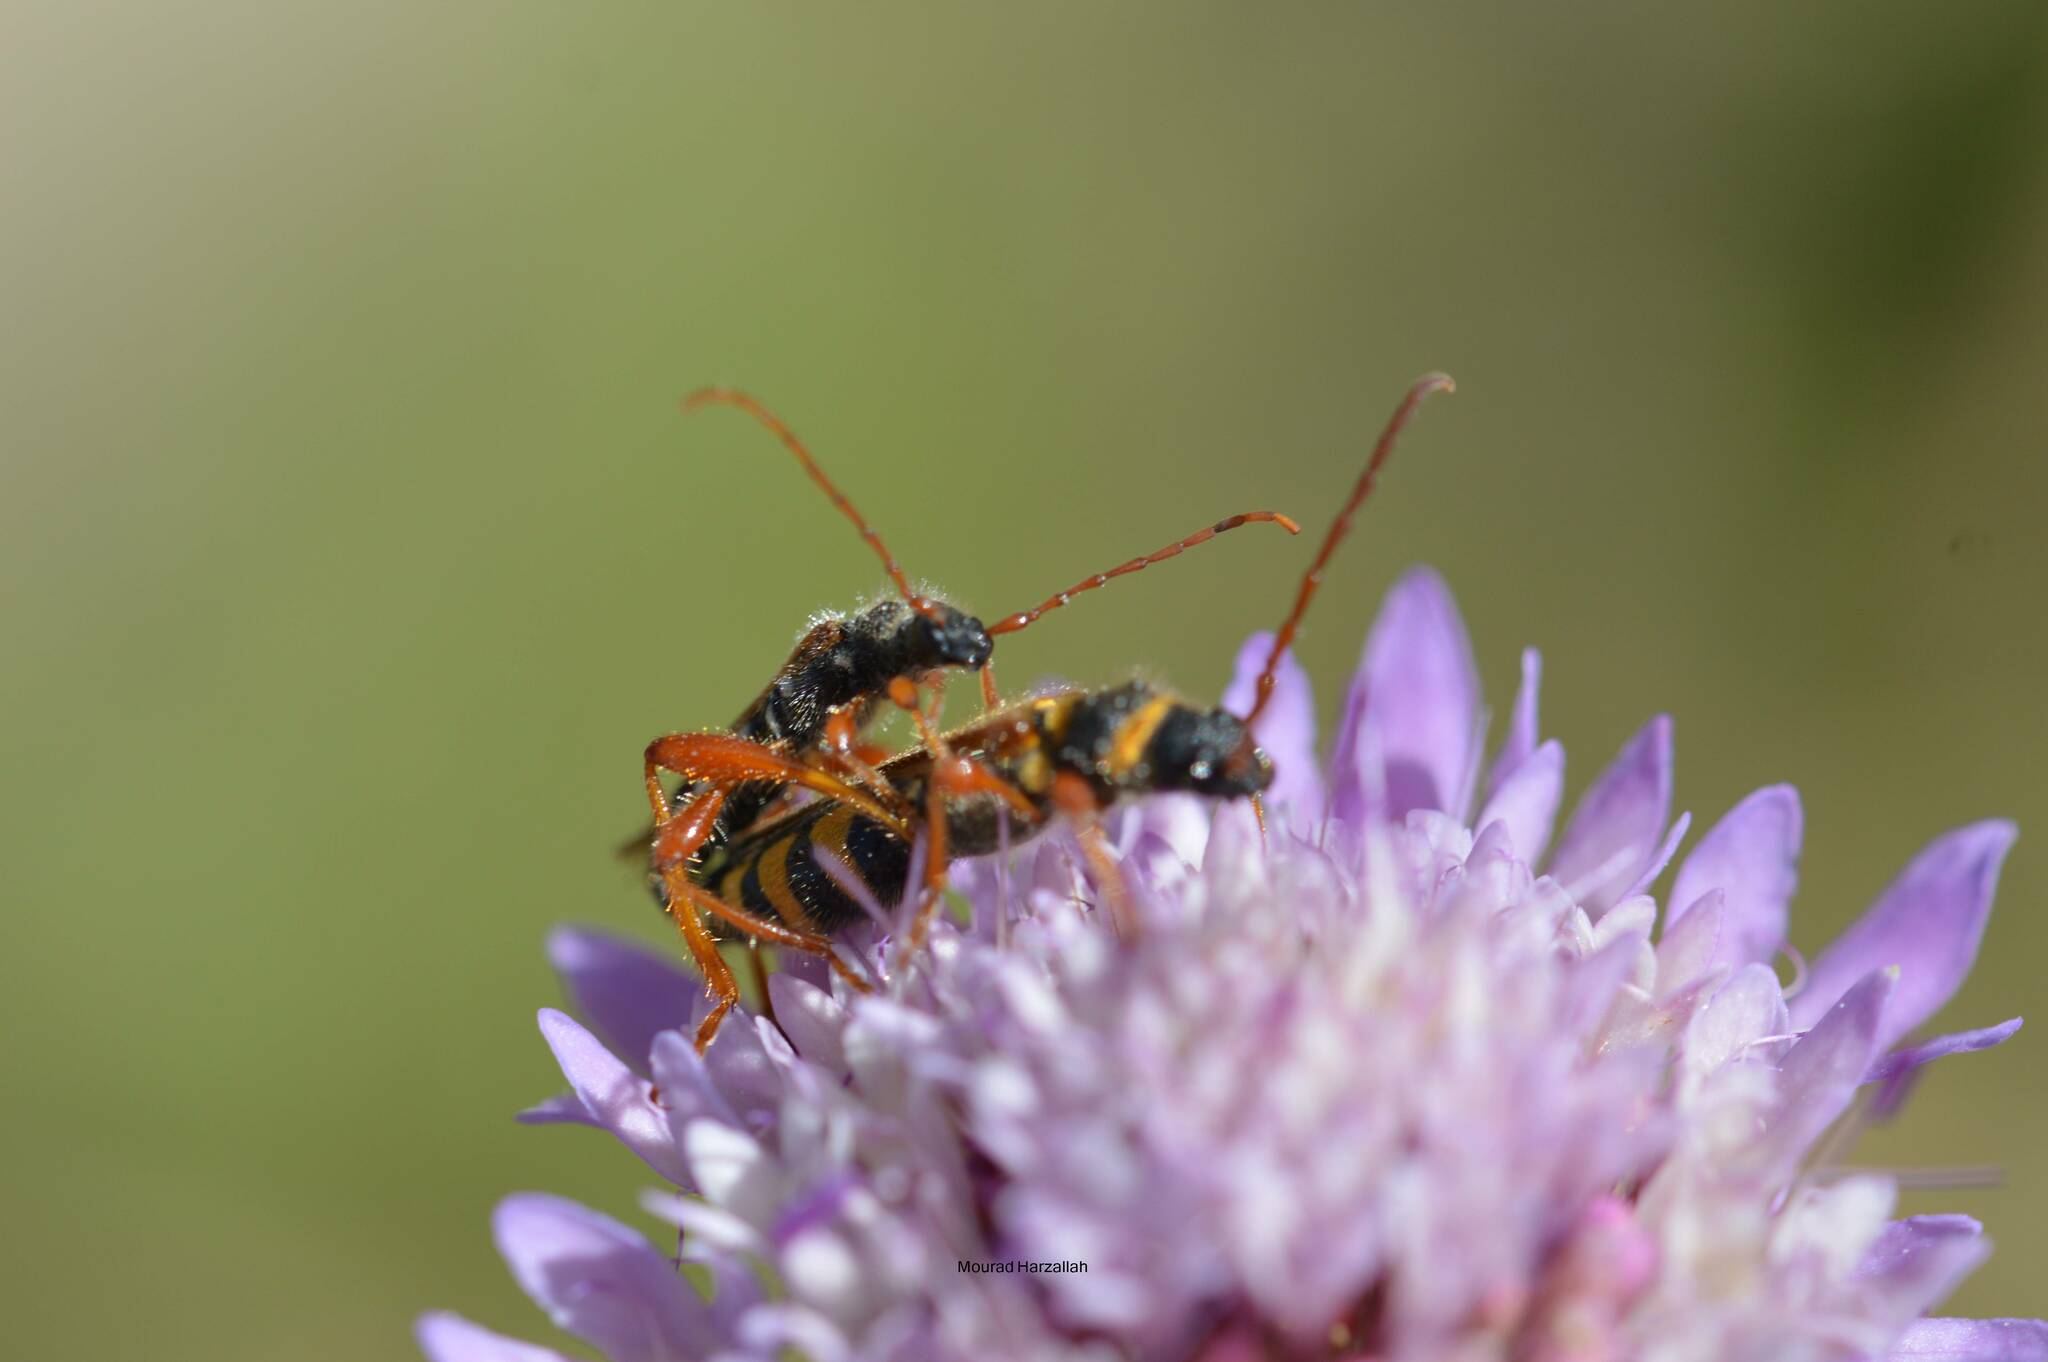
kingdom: Animalia
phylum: Arthropoda
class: Insecta
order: Coleoptera
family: Cerambycidae
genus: Stenopterus
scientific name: Stenopterus mauritanicus
